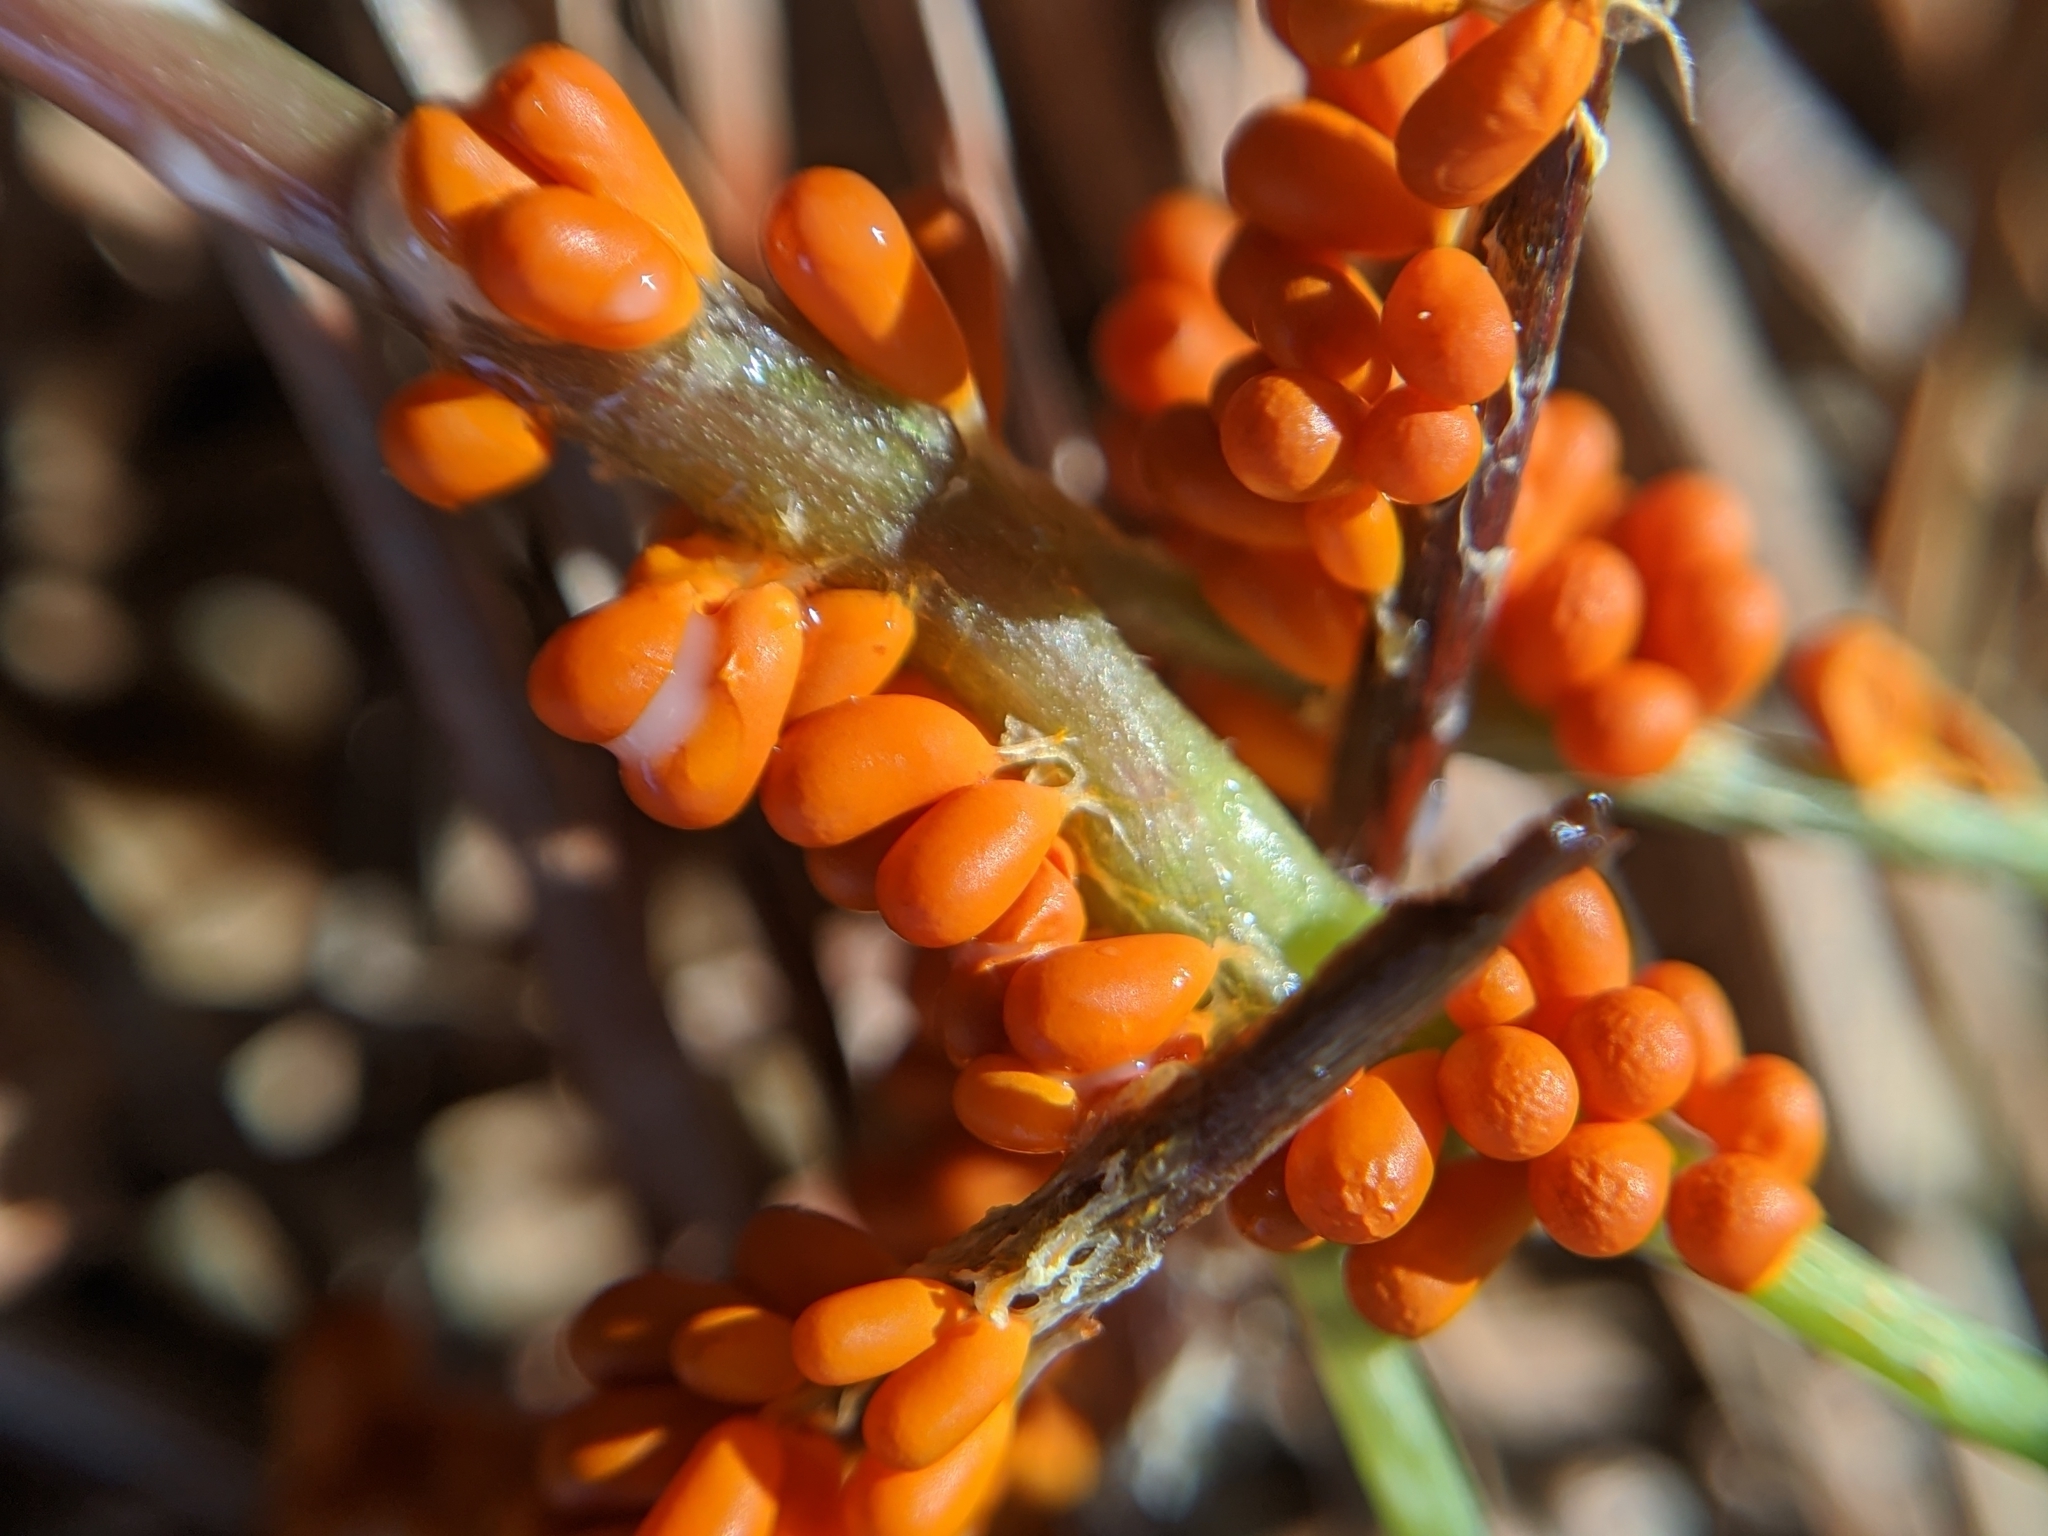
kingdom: Protozoa
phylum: Mycetozoa
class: Myxomycetes
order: Physarales
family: Physaraceae
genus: Leocarpus
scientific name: Leocarpus fragilis
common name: Insect-egg slime
